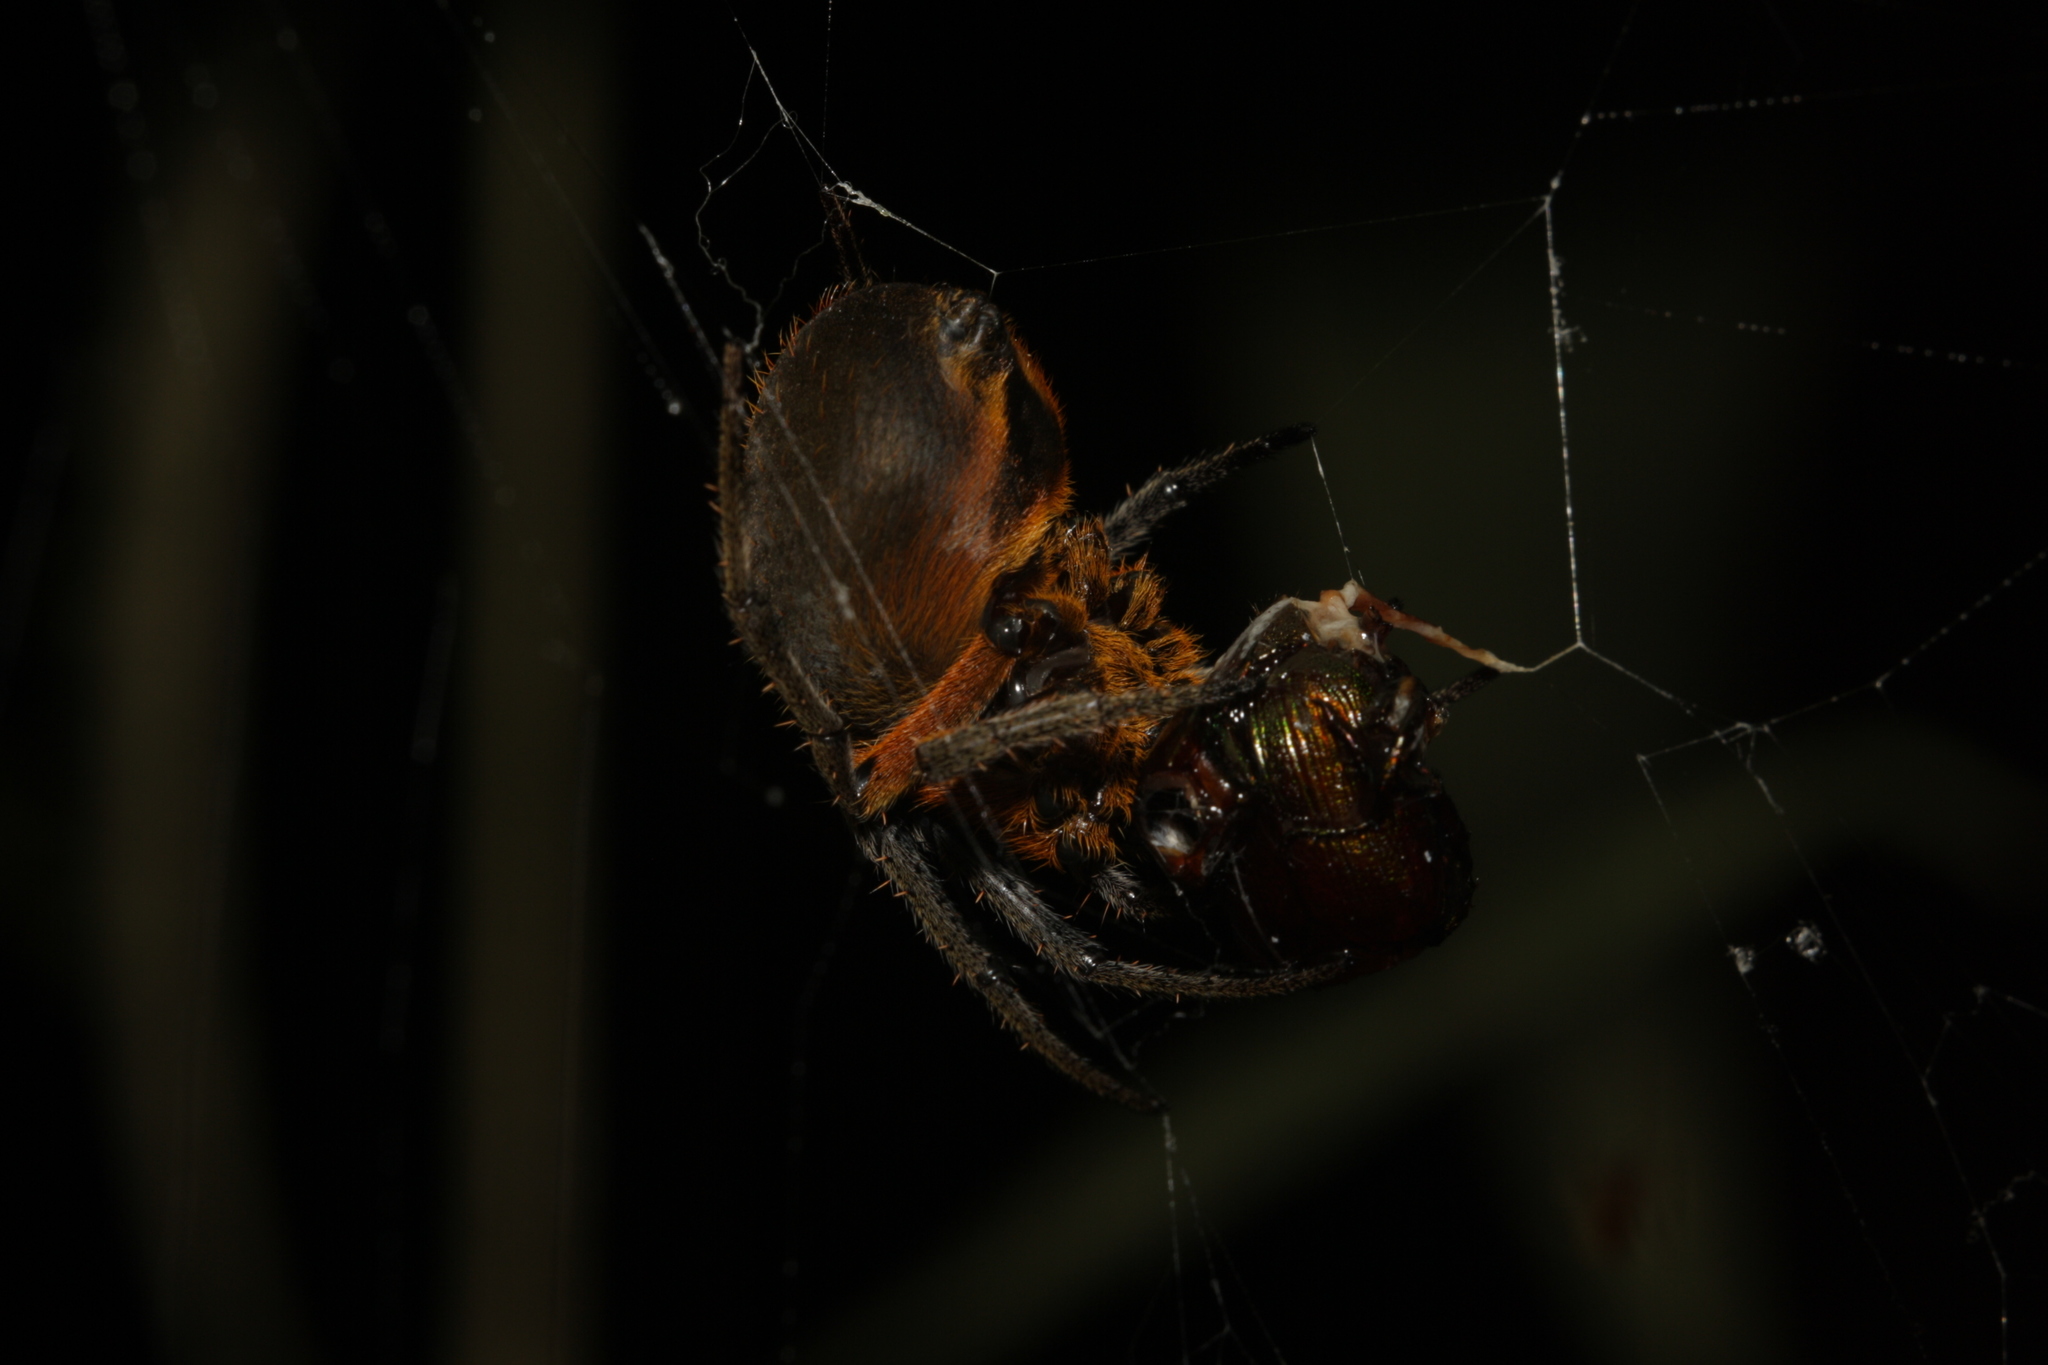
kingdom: Animalia
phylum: Arthropoda
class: Arachnida
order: Araneae
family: Araneidae
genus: Eriophora
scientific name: Eriophora fuliginea
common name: Orb weavers
